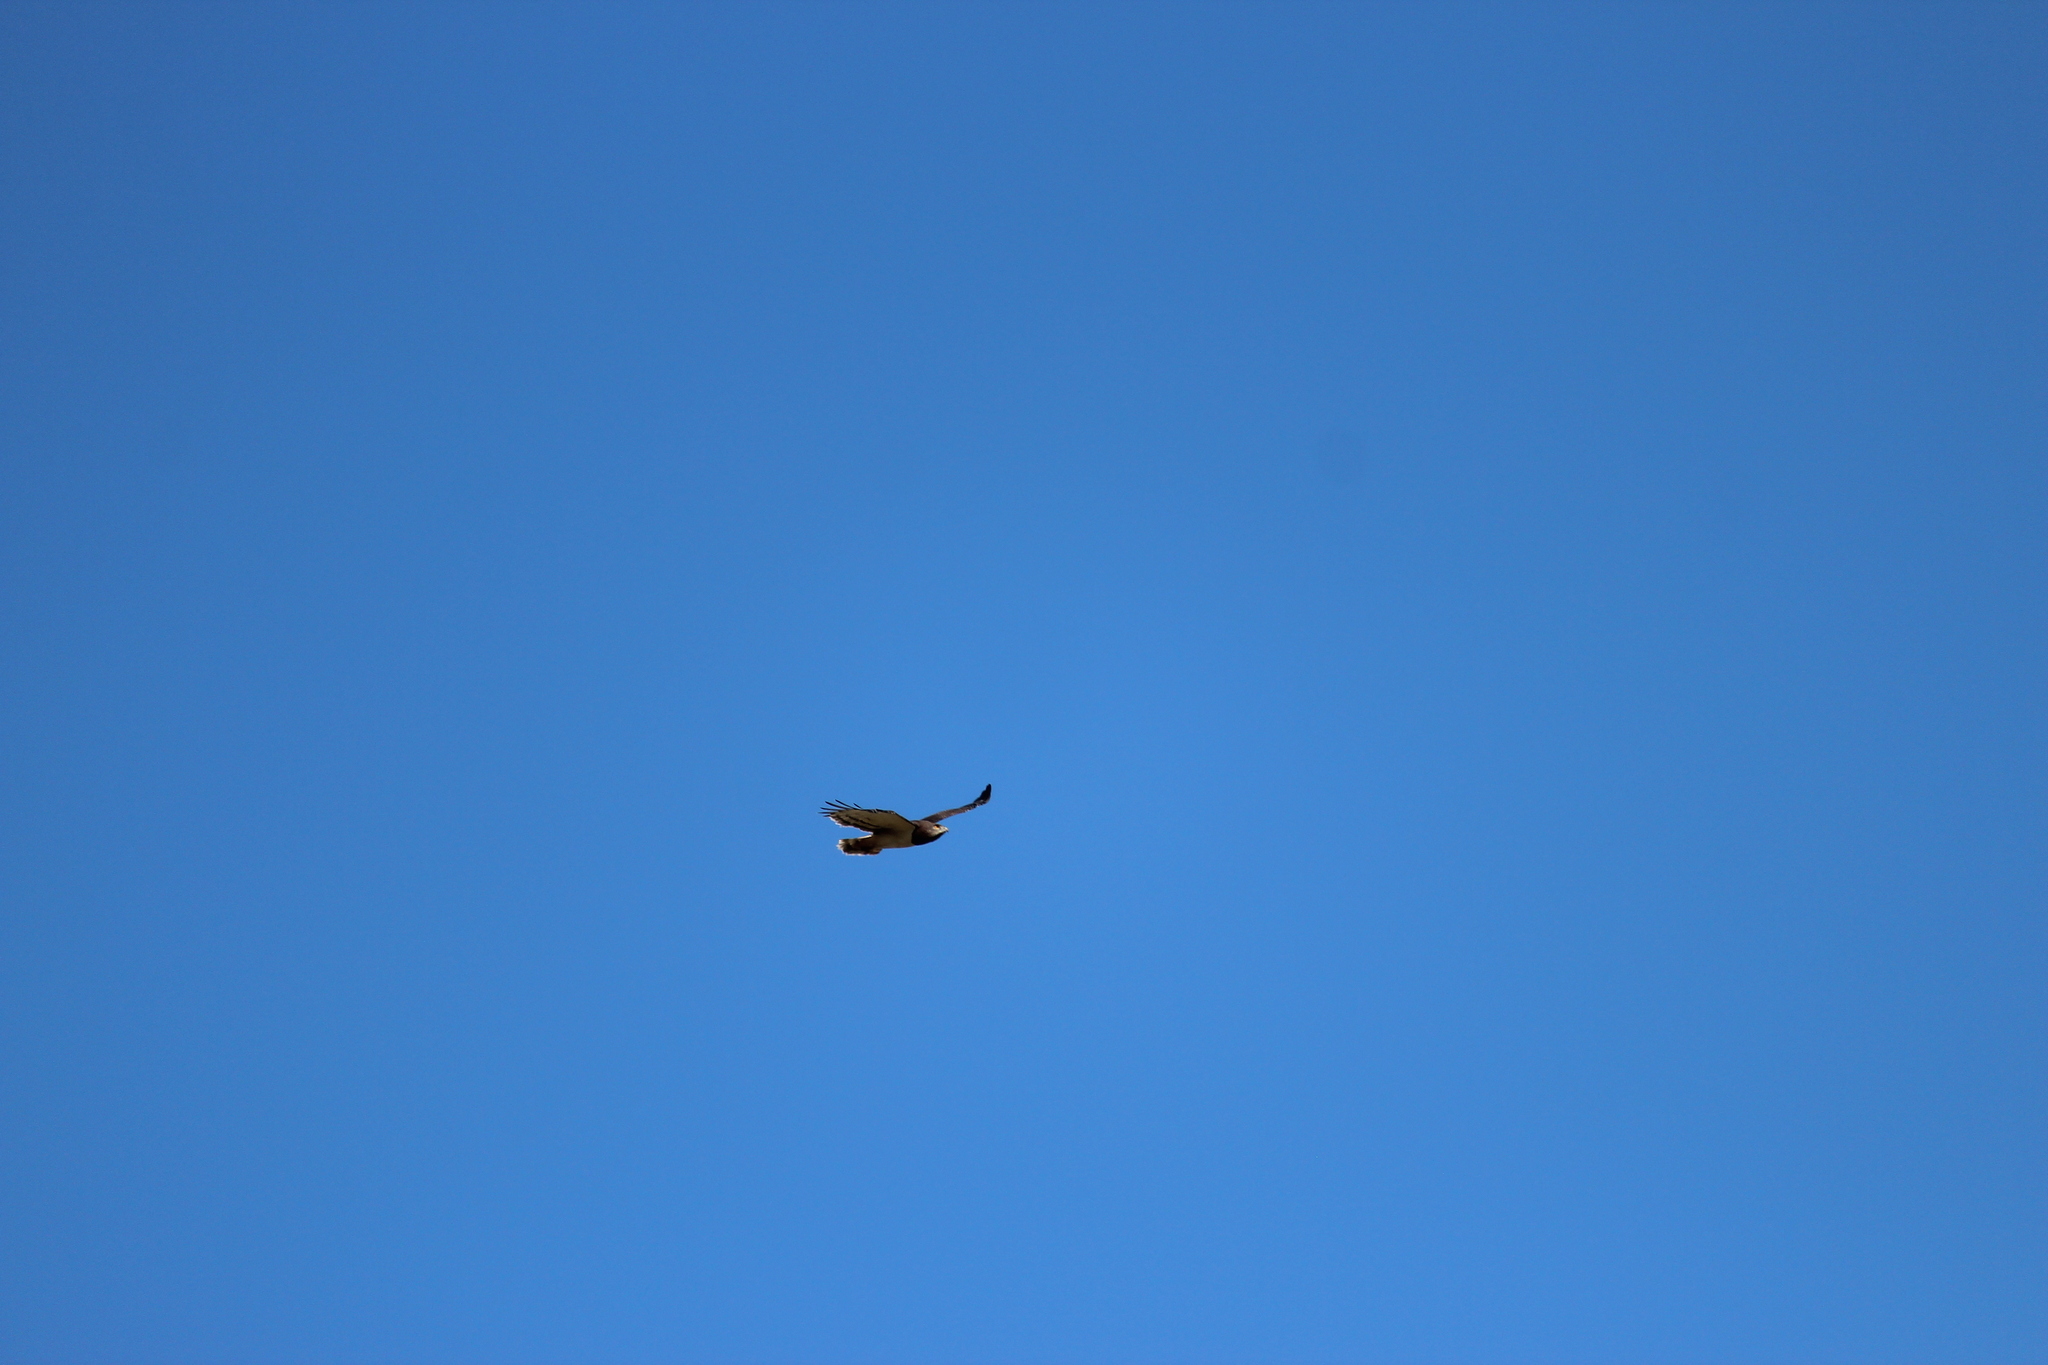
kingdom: Animalia
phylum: Chordata
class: Aves
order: Accipitriformes
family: Accipitridae
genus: Circaetus
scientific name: Circaetus pectoralis
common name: Black-chested snake eagle
